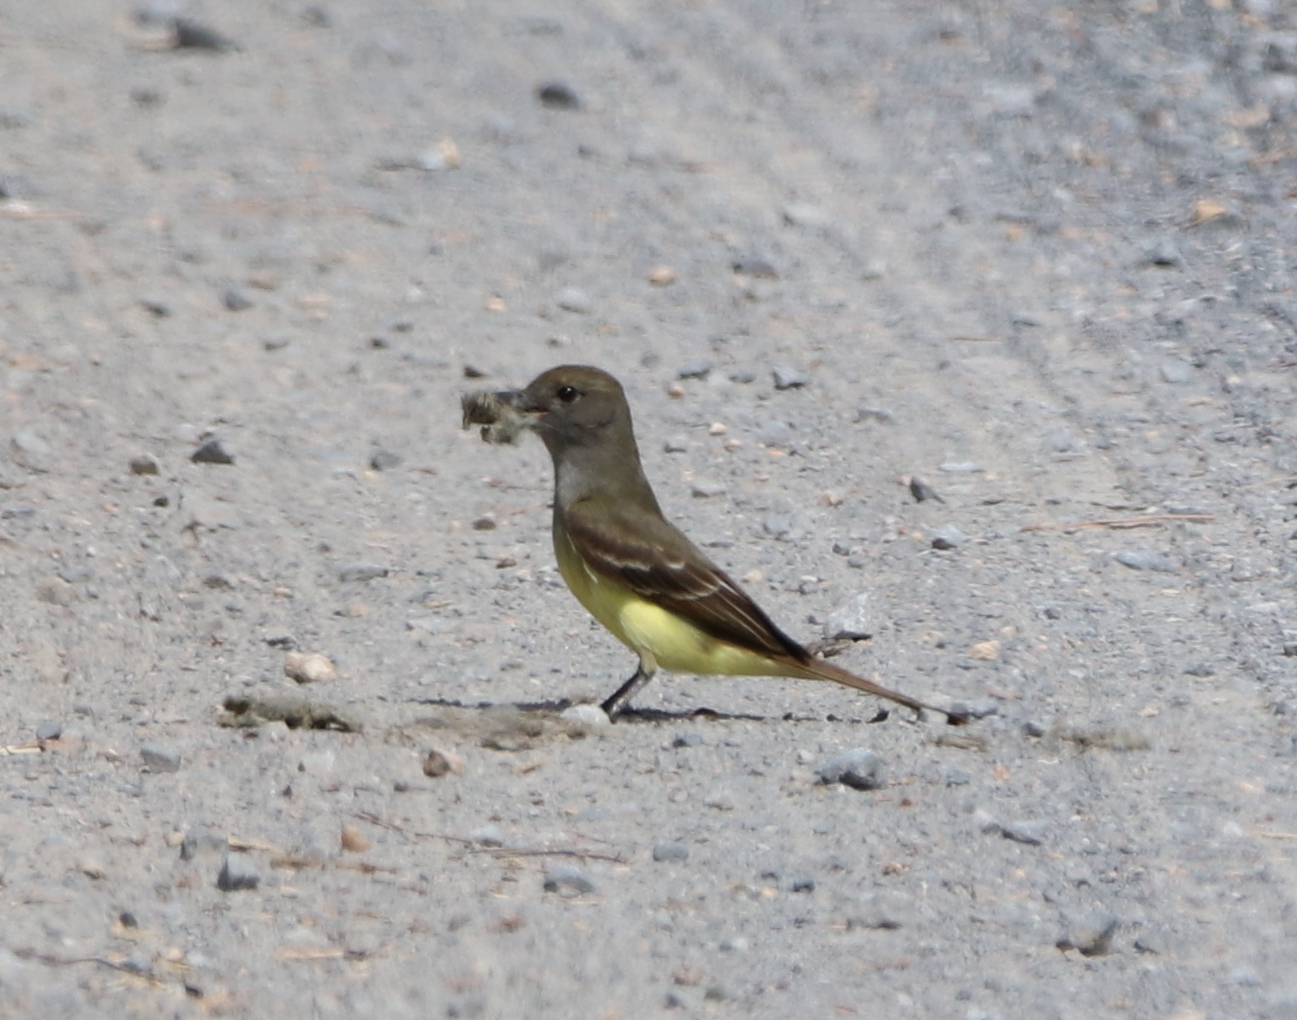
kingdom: Animalia
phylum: Chordata
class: Aves
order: Passeriformes
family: Tyrannidae
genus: Myiarchus
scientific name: Myiarchus crinitus
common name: Great crested flycatcher
